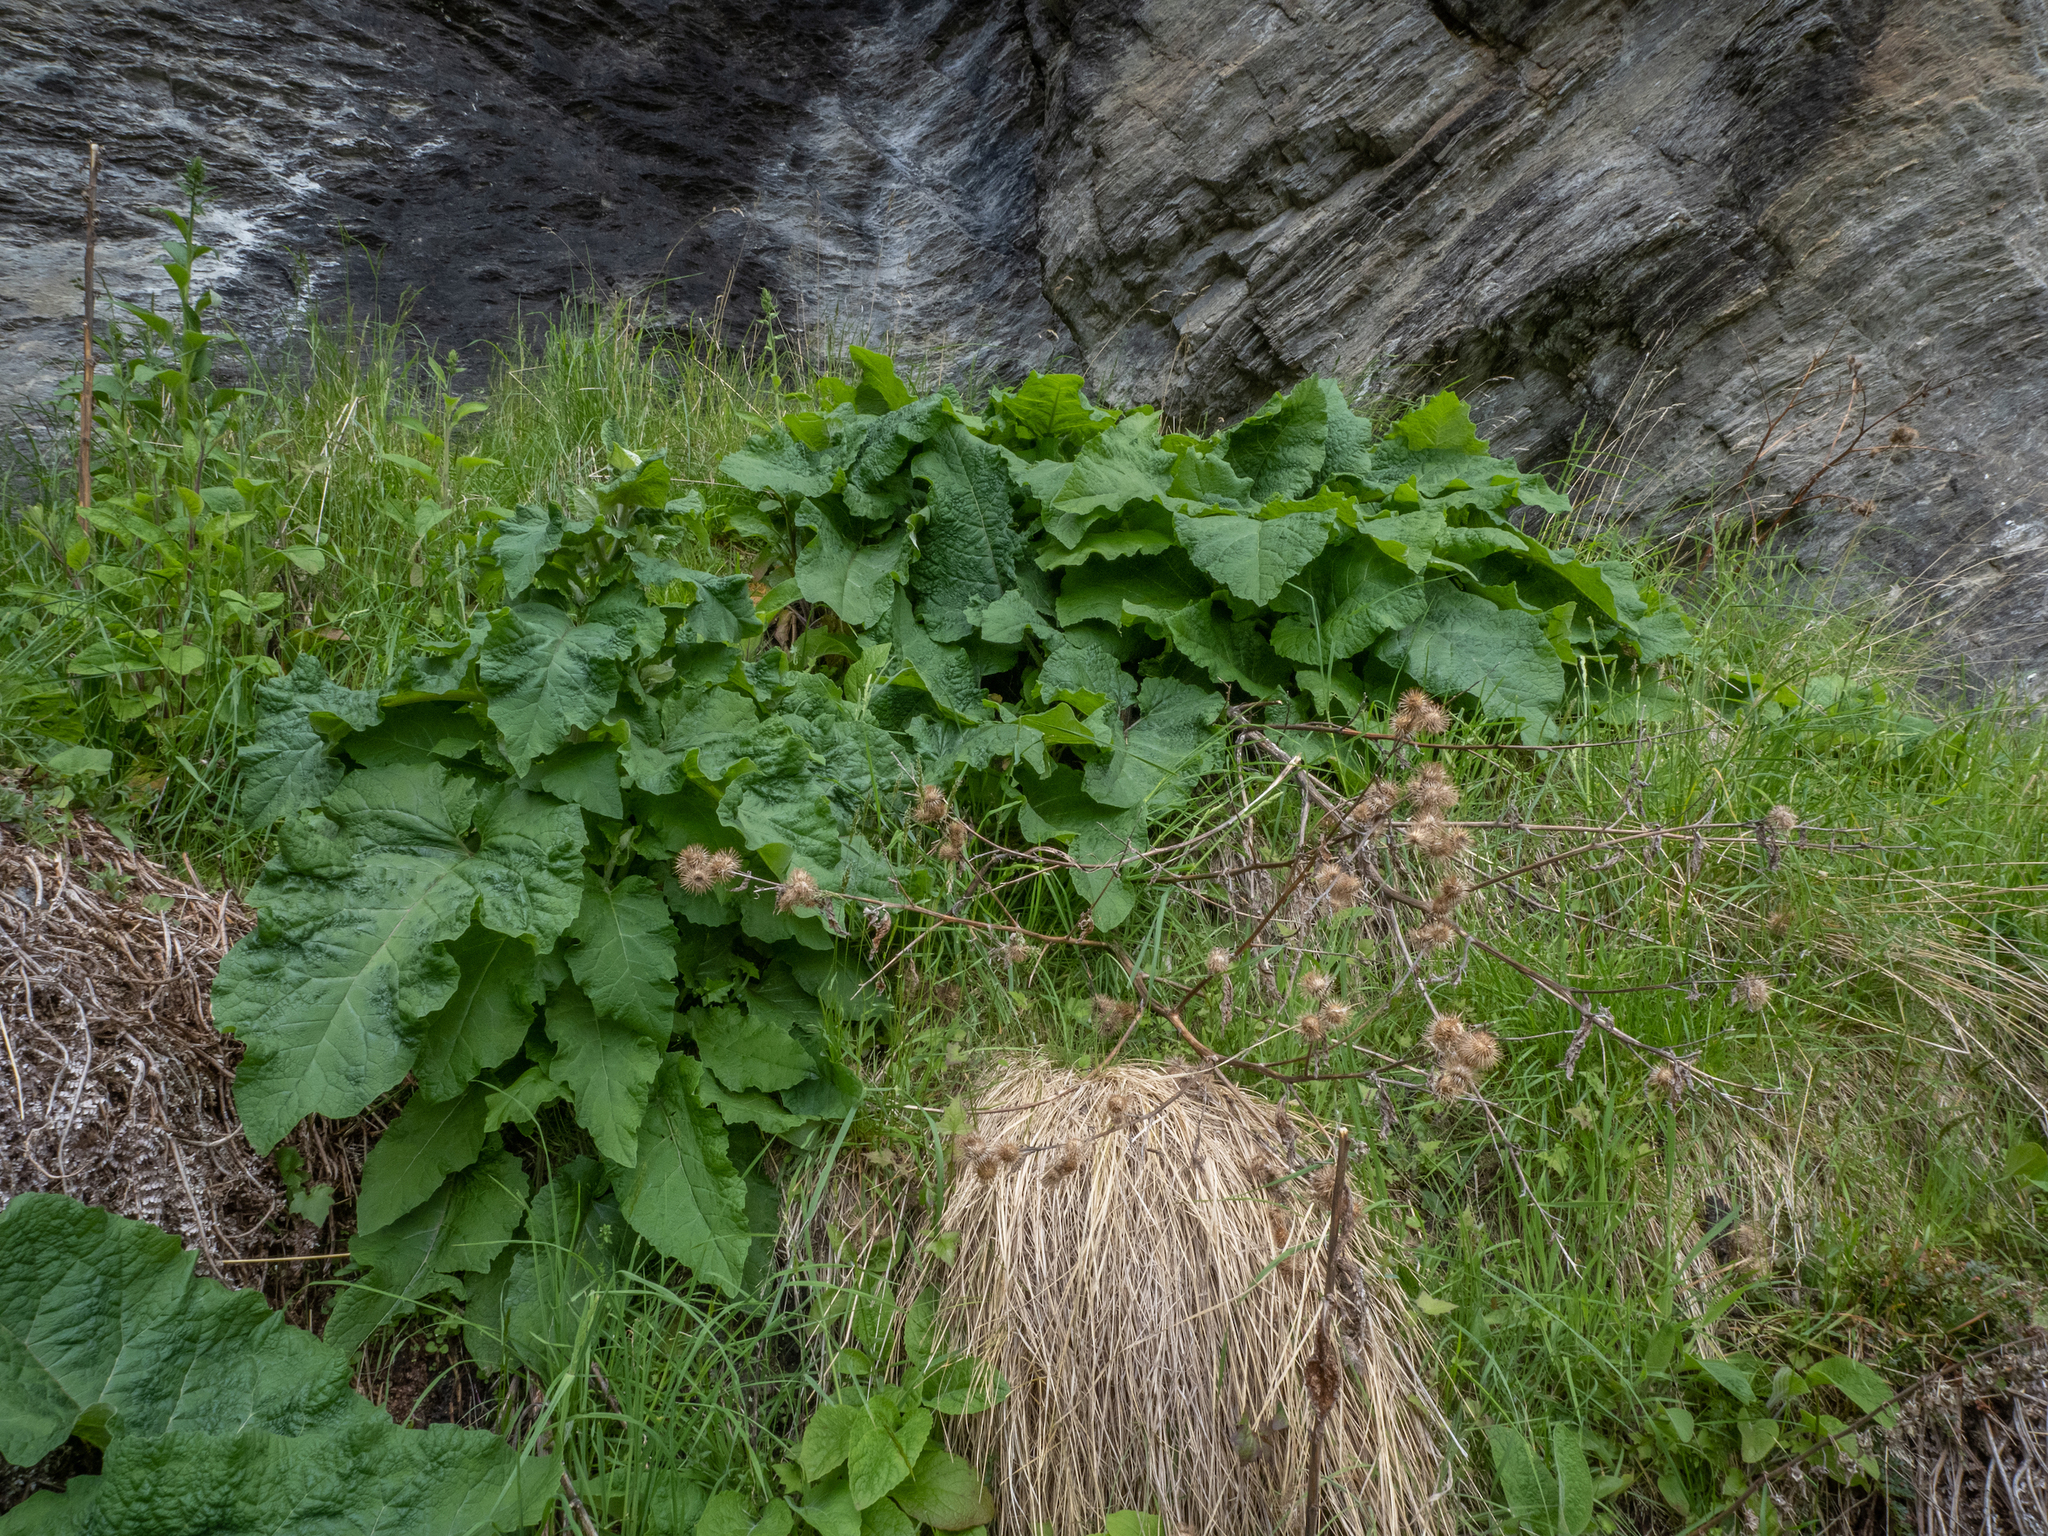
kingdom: Plantae
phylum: Tracheophyta
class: Magnoliopsida
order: Asterales
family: Asteraceae
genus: Arctium
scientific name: Arctium minus
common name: Lesser burdock
